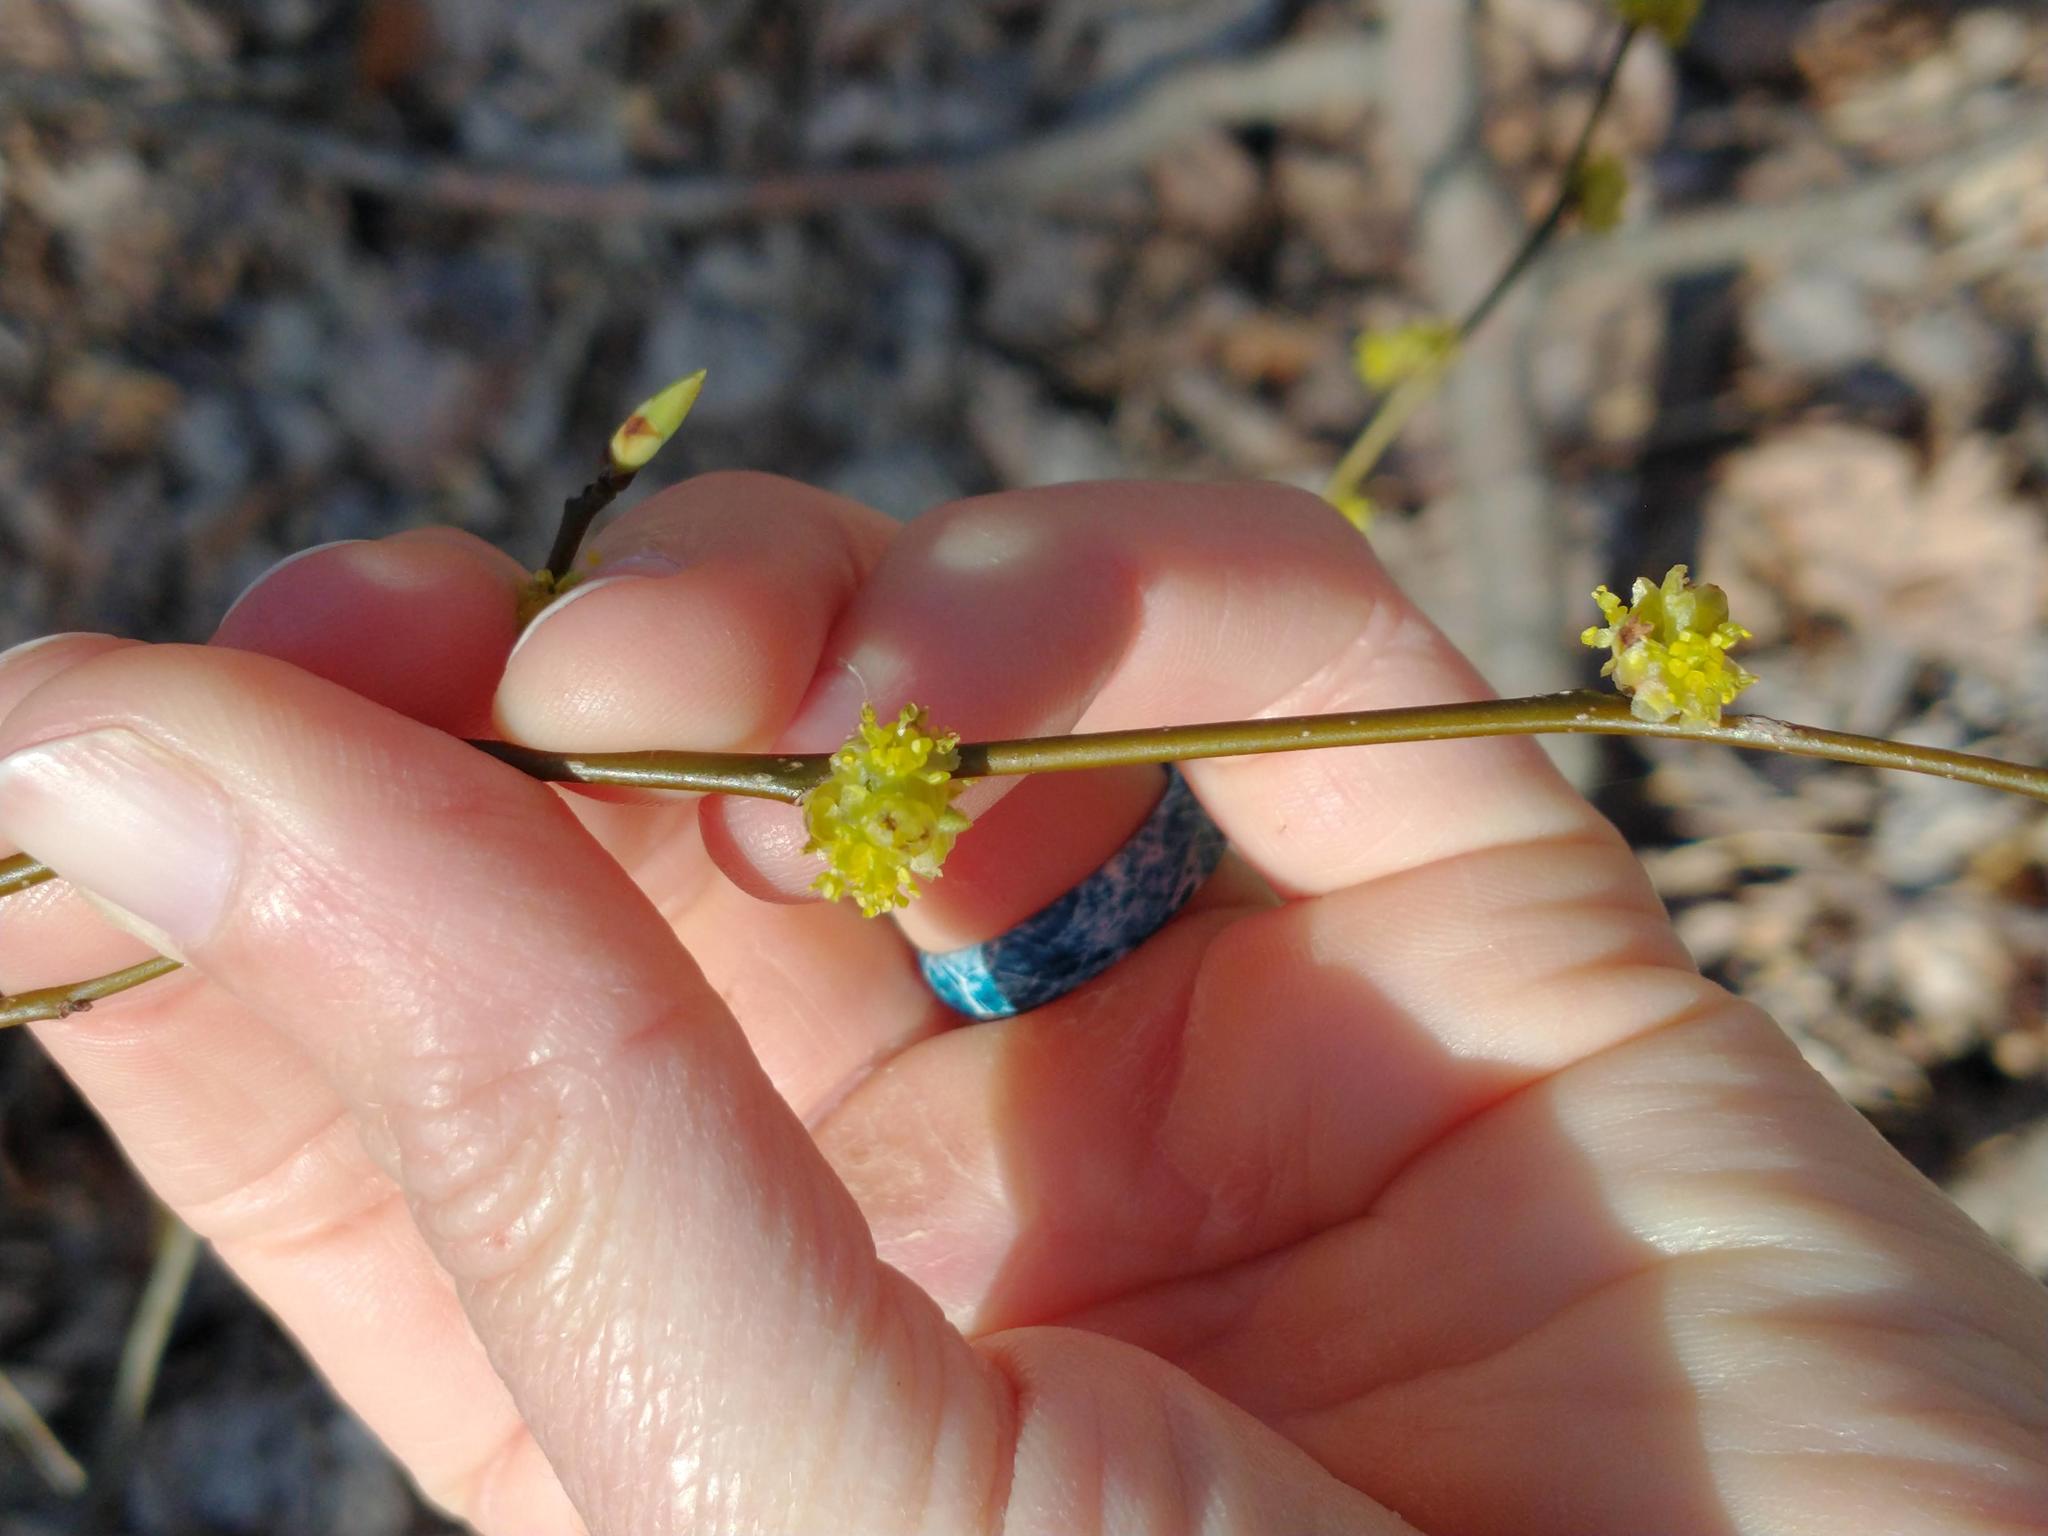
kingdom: Plantae
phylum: Tracheophyta
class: Magnoliopsida
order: Laurales
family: Lauraceae
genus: Lindera
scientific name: Lindera benzoin
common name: Spicebush
